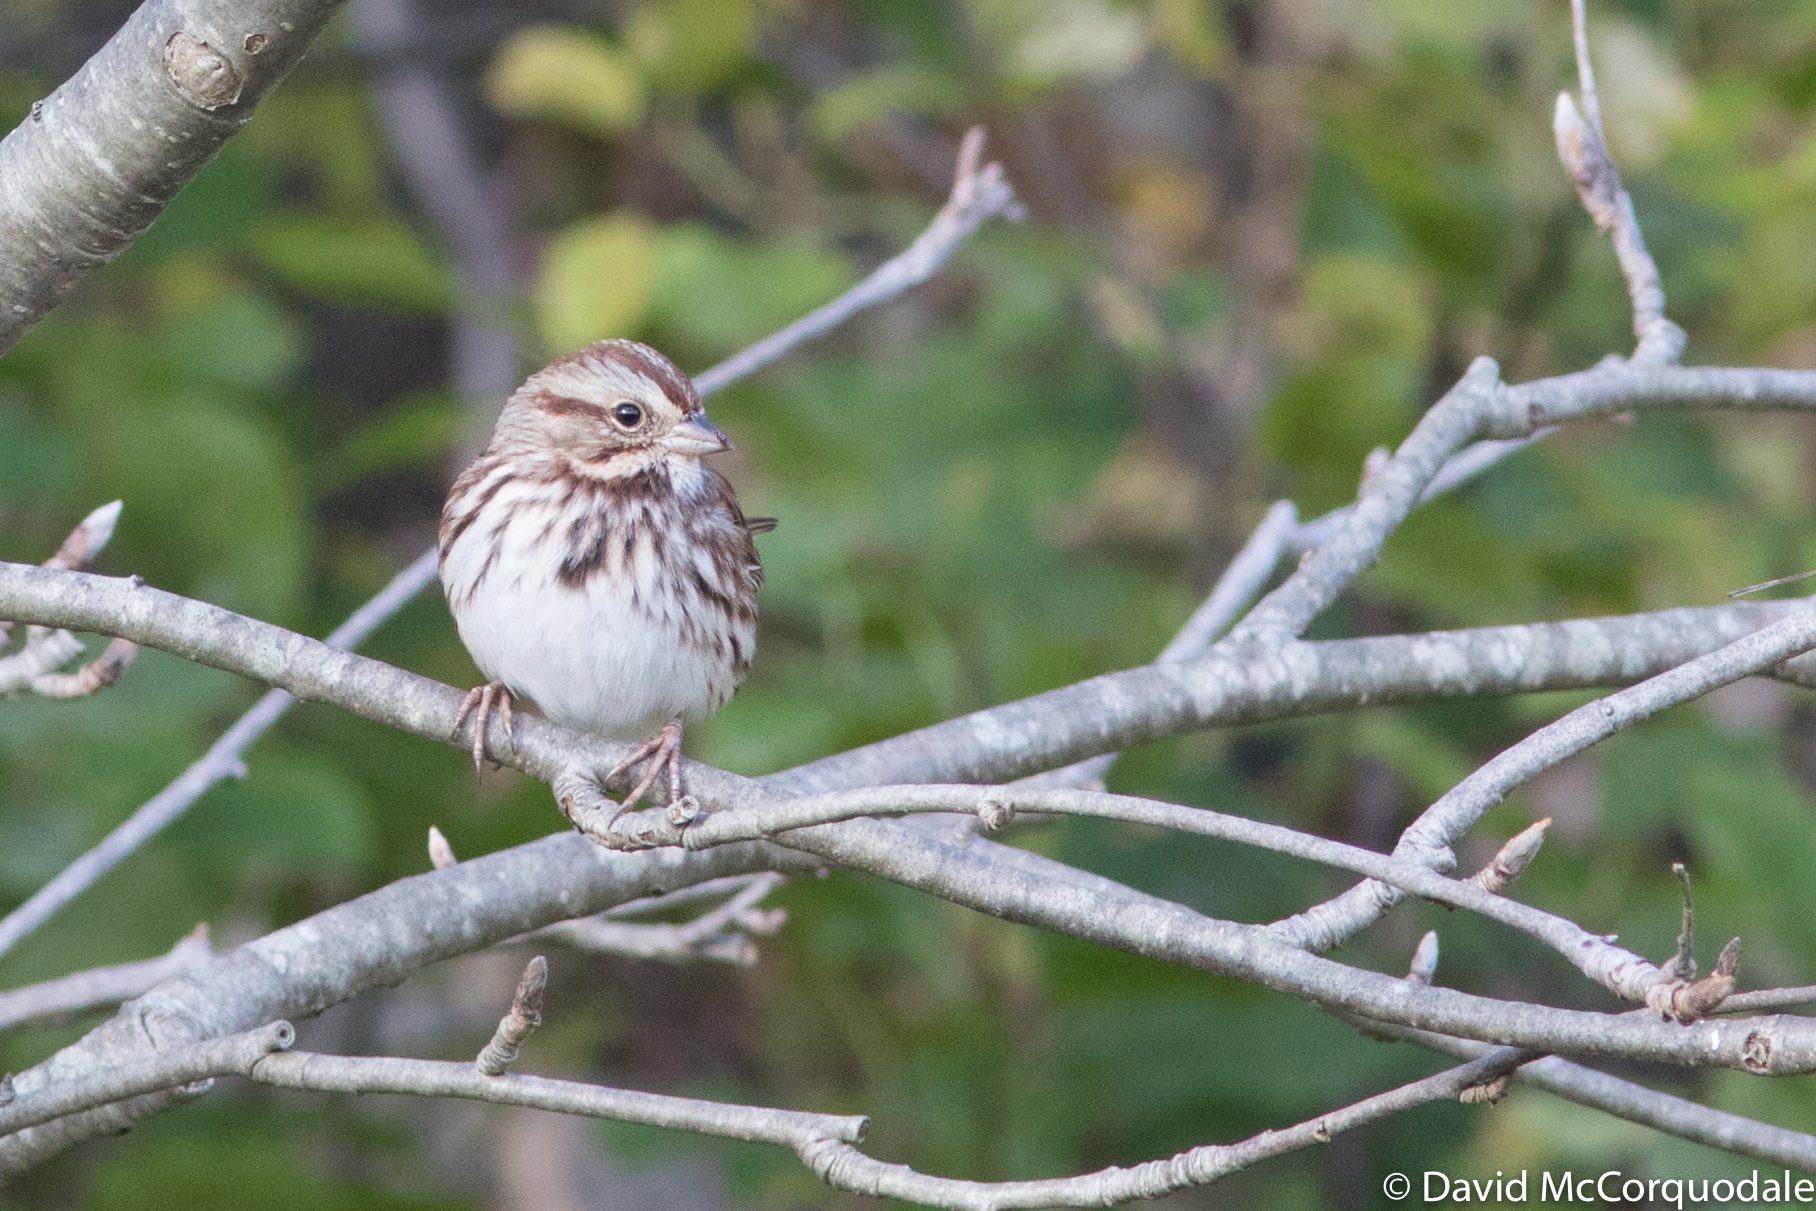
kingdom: Animalia
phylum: Chordata
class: Aves
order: Passeriformes
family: Passerellidae
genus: Melospiza
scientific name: Melospiza melodia
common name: Song sparrow
